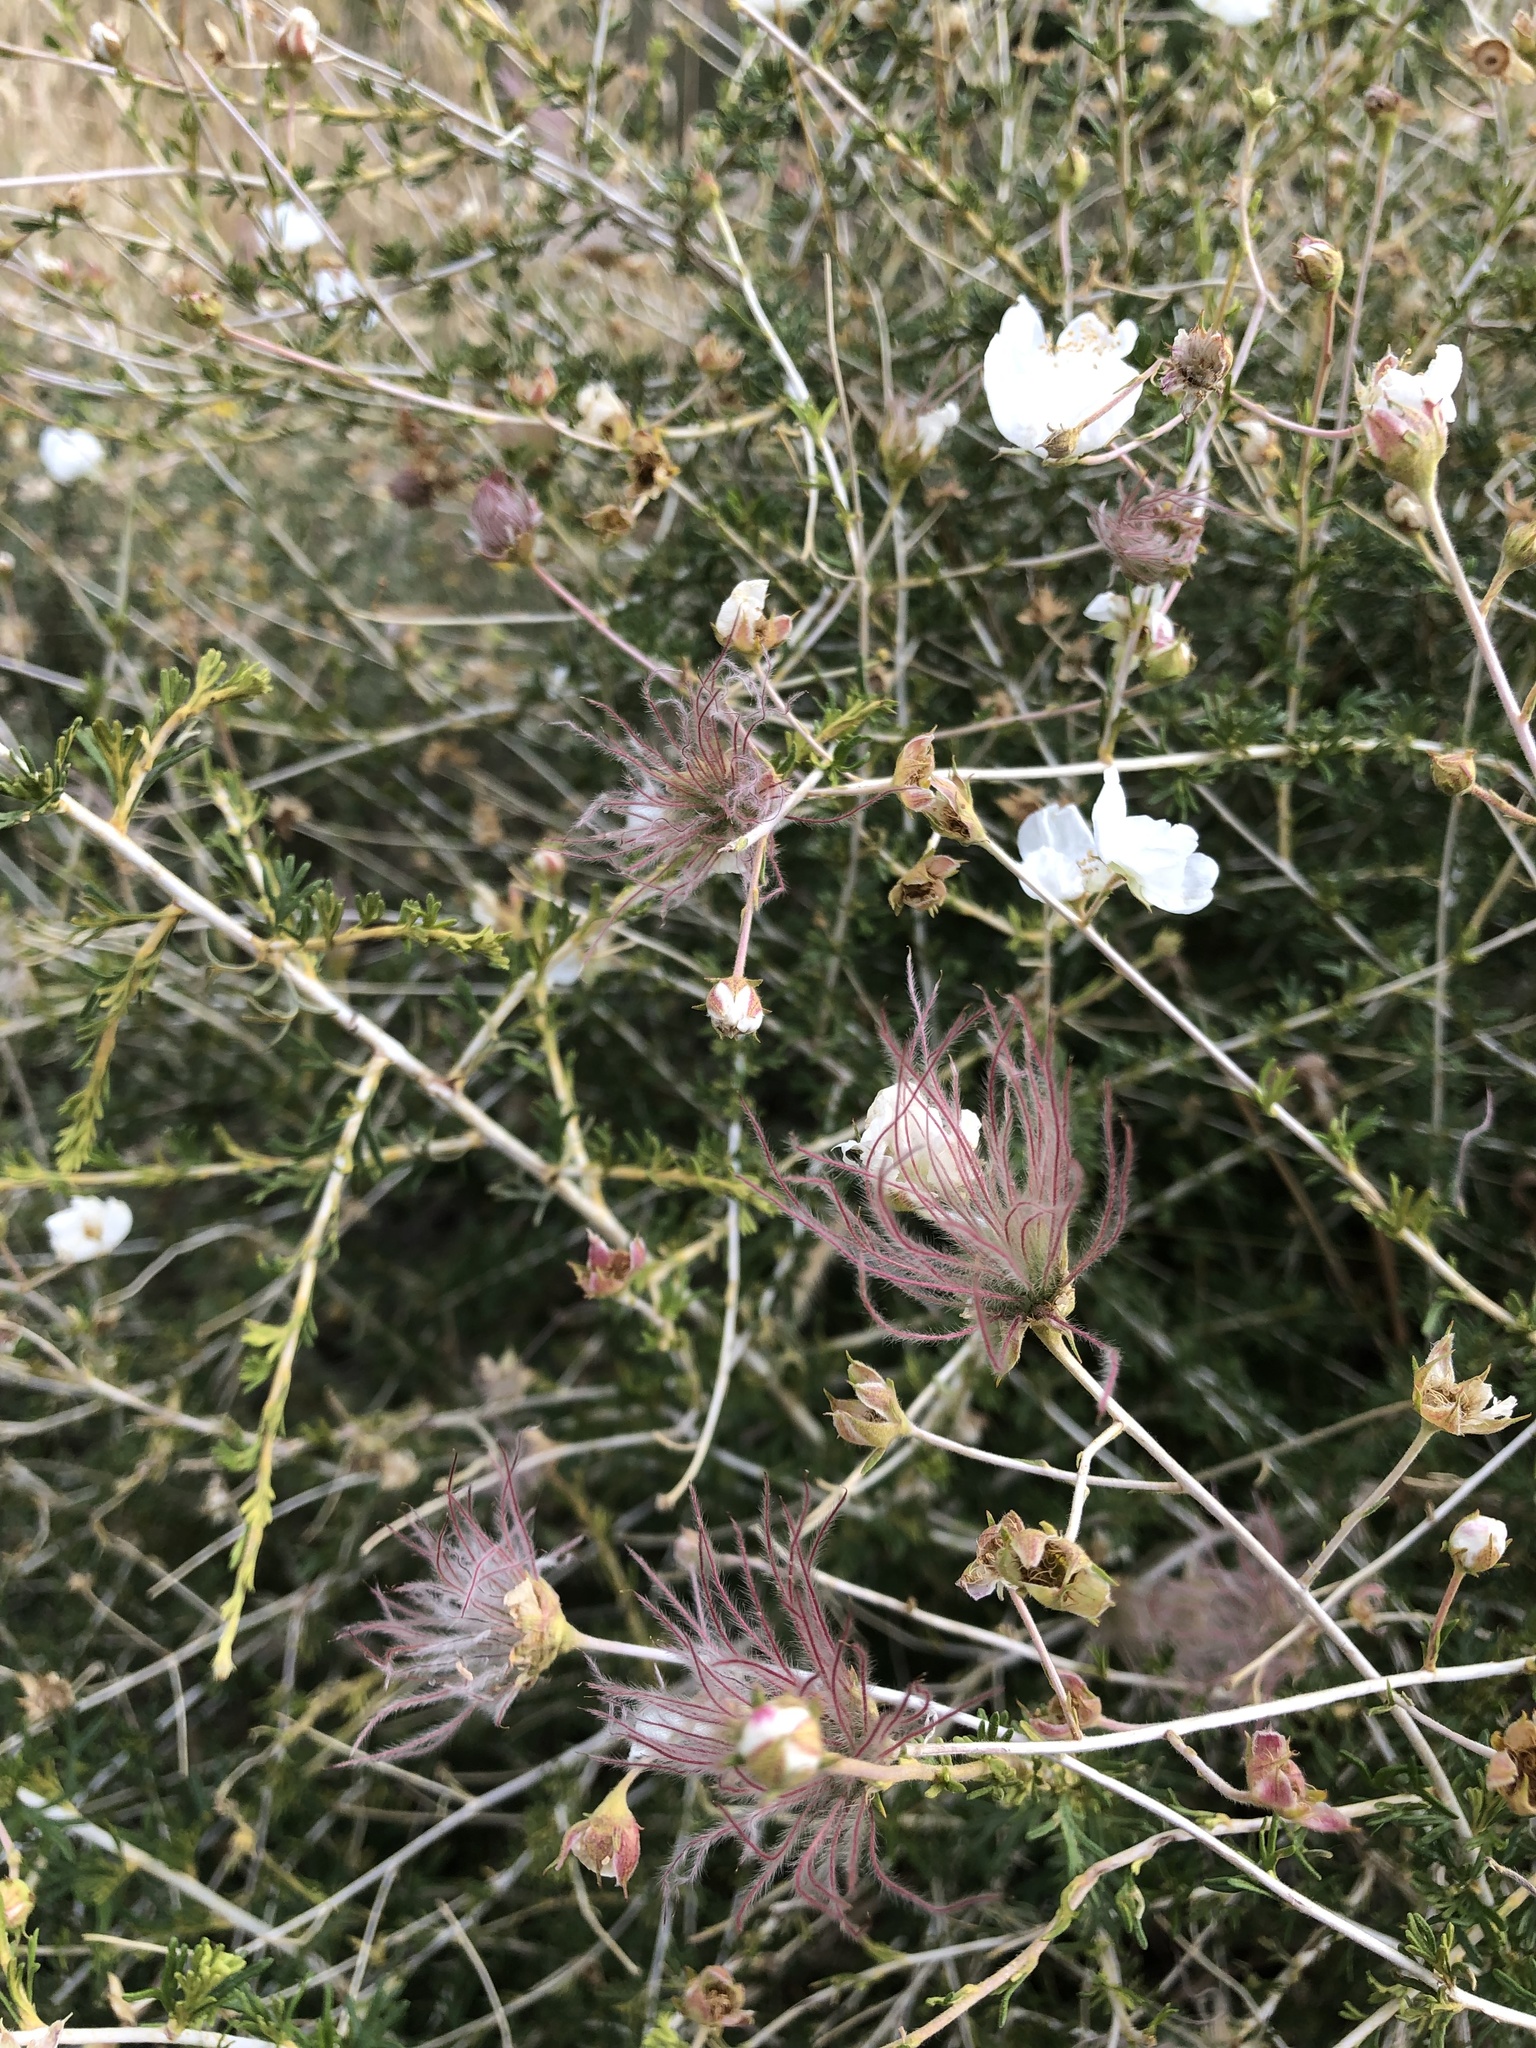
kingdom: Plantae
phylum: Tracheophyta
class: Magnoliopsida
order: Rosales
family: Rosaceae
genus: Fallugia
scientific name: Fallugia paradoxa
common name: Apache-plume
